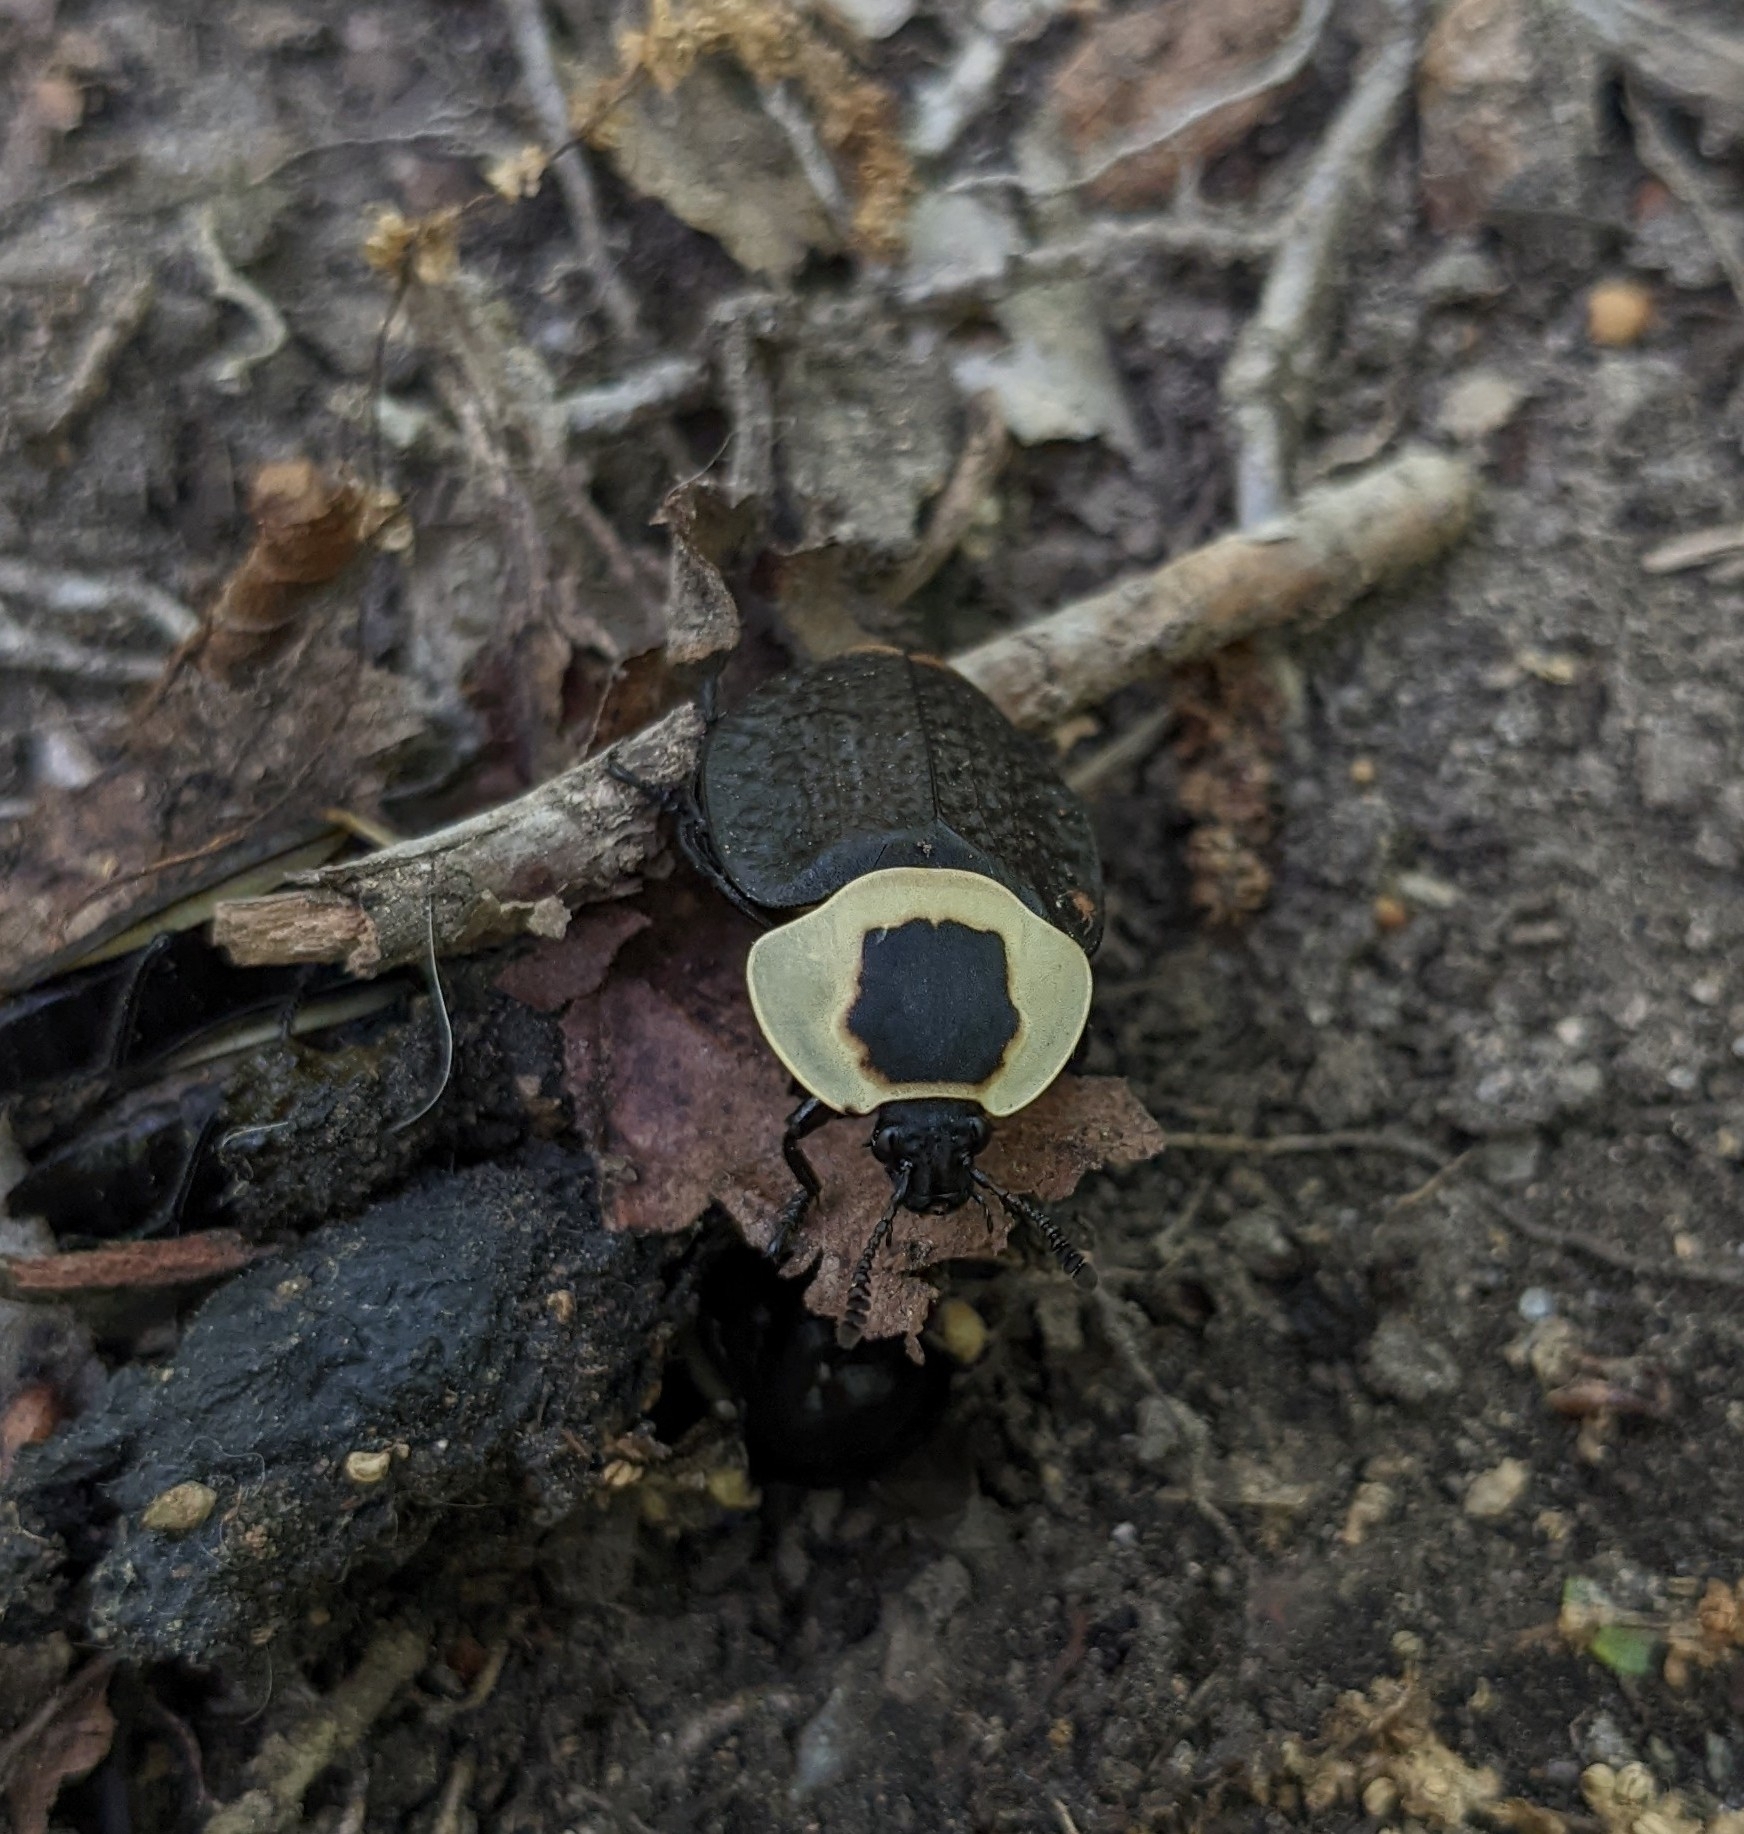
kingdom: Animalia
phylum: Arthropoda
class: Insecta
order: Coleoptera
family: Staphylinidae
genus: Necrophila
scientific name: Necrophila americana
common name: American carrion beetle
